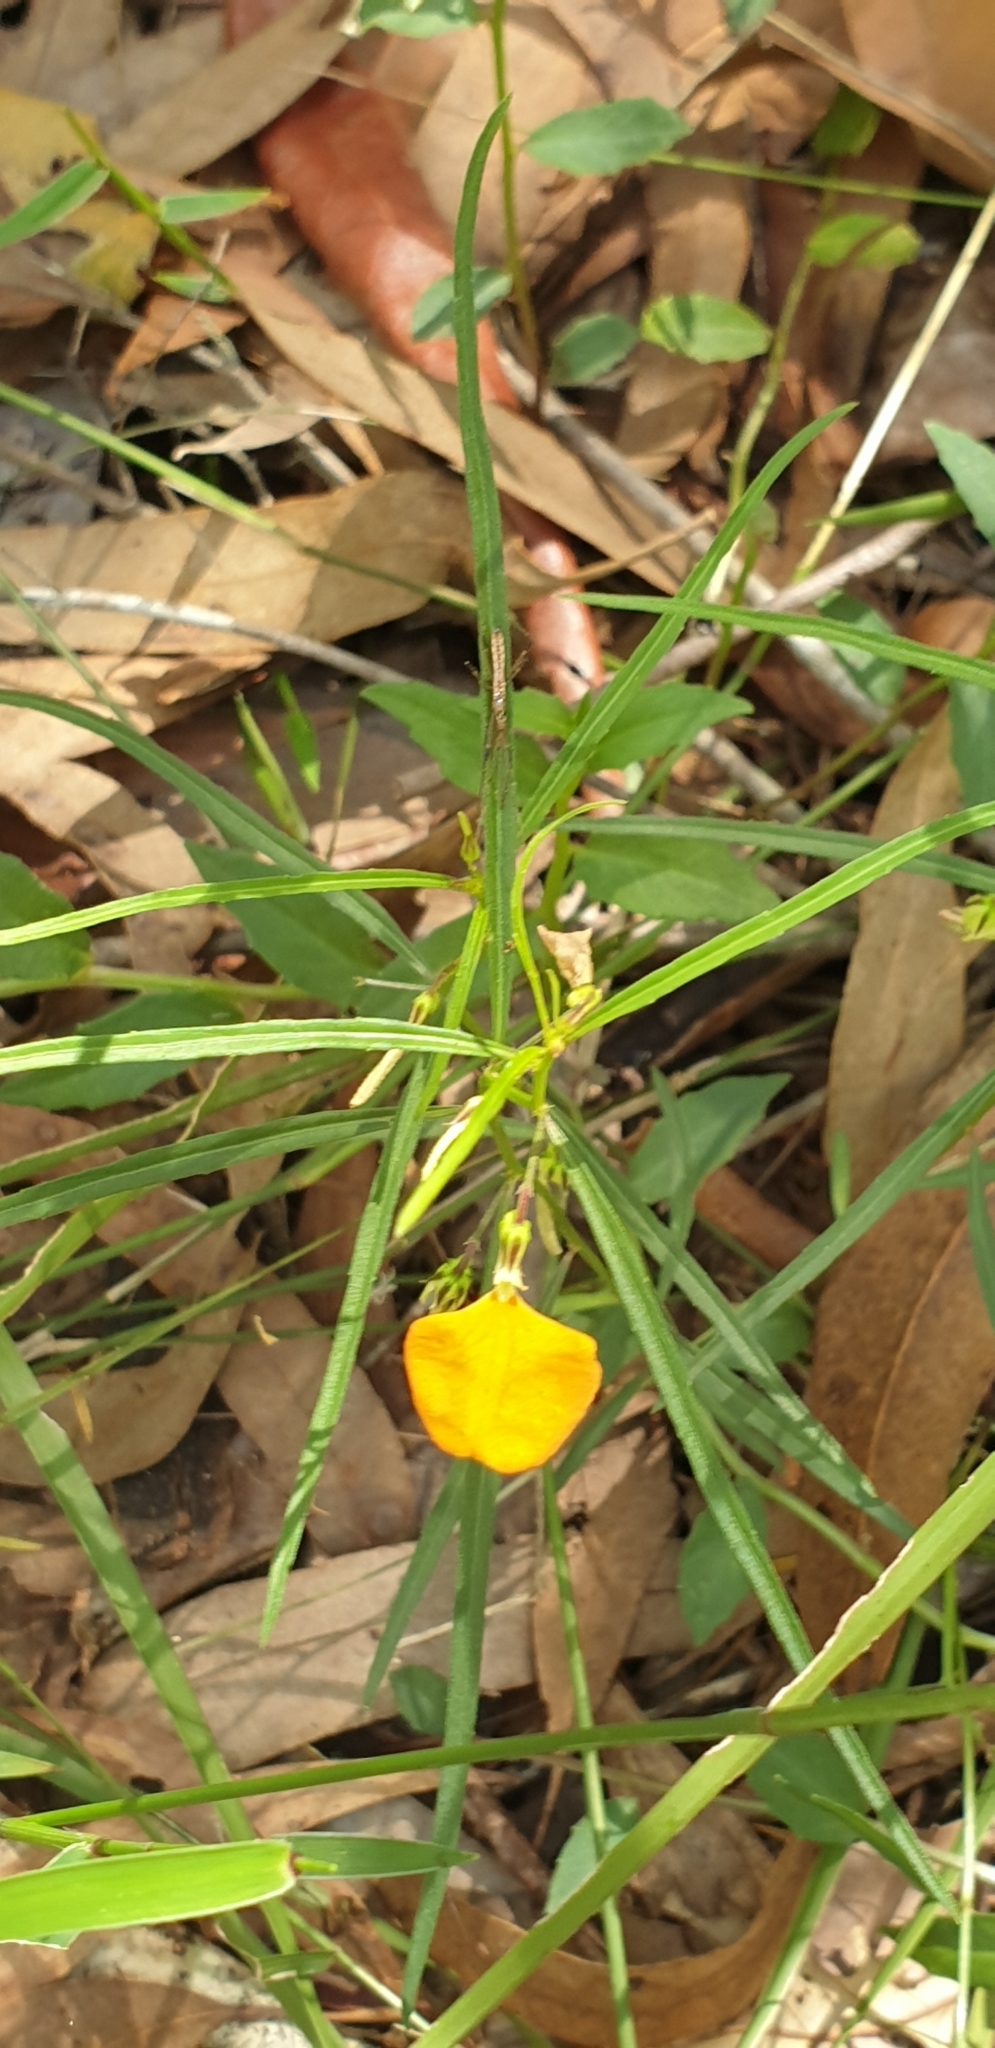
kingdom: Plantae
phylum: Tracheophyta
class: Magnoliopsida
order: Malpighiales
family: Violaceae
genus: Pigea
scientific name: Pigea stellarioides
